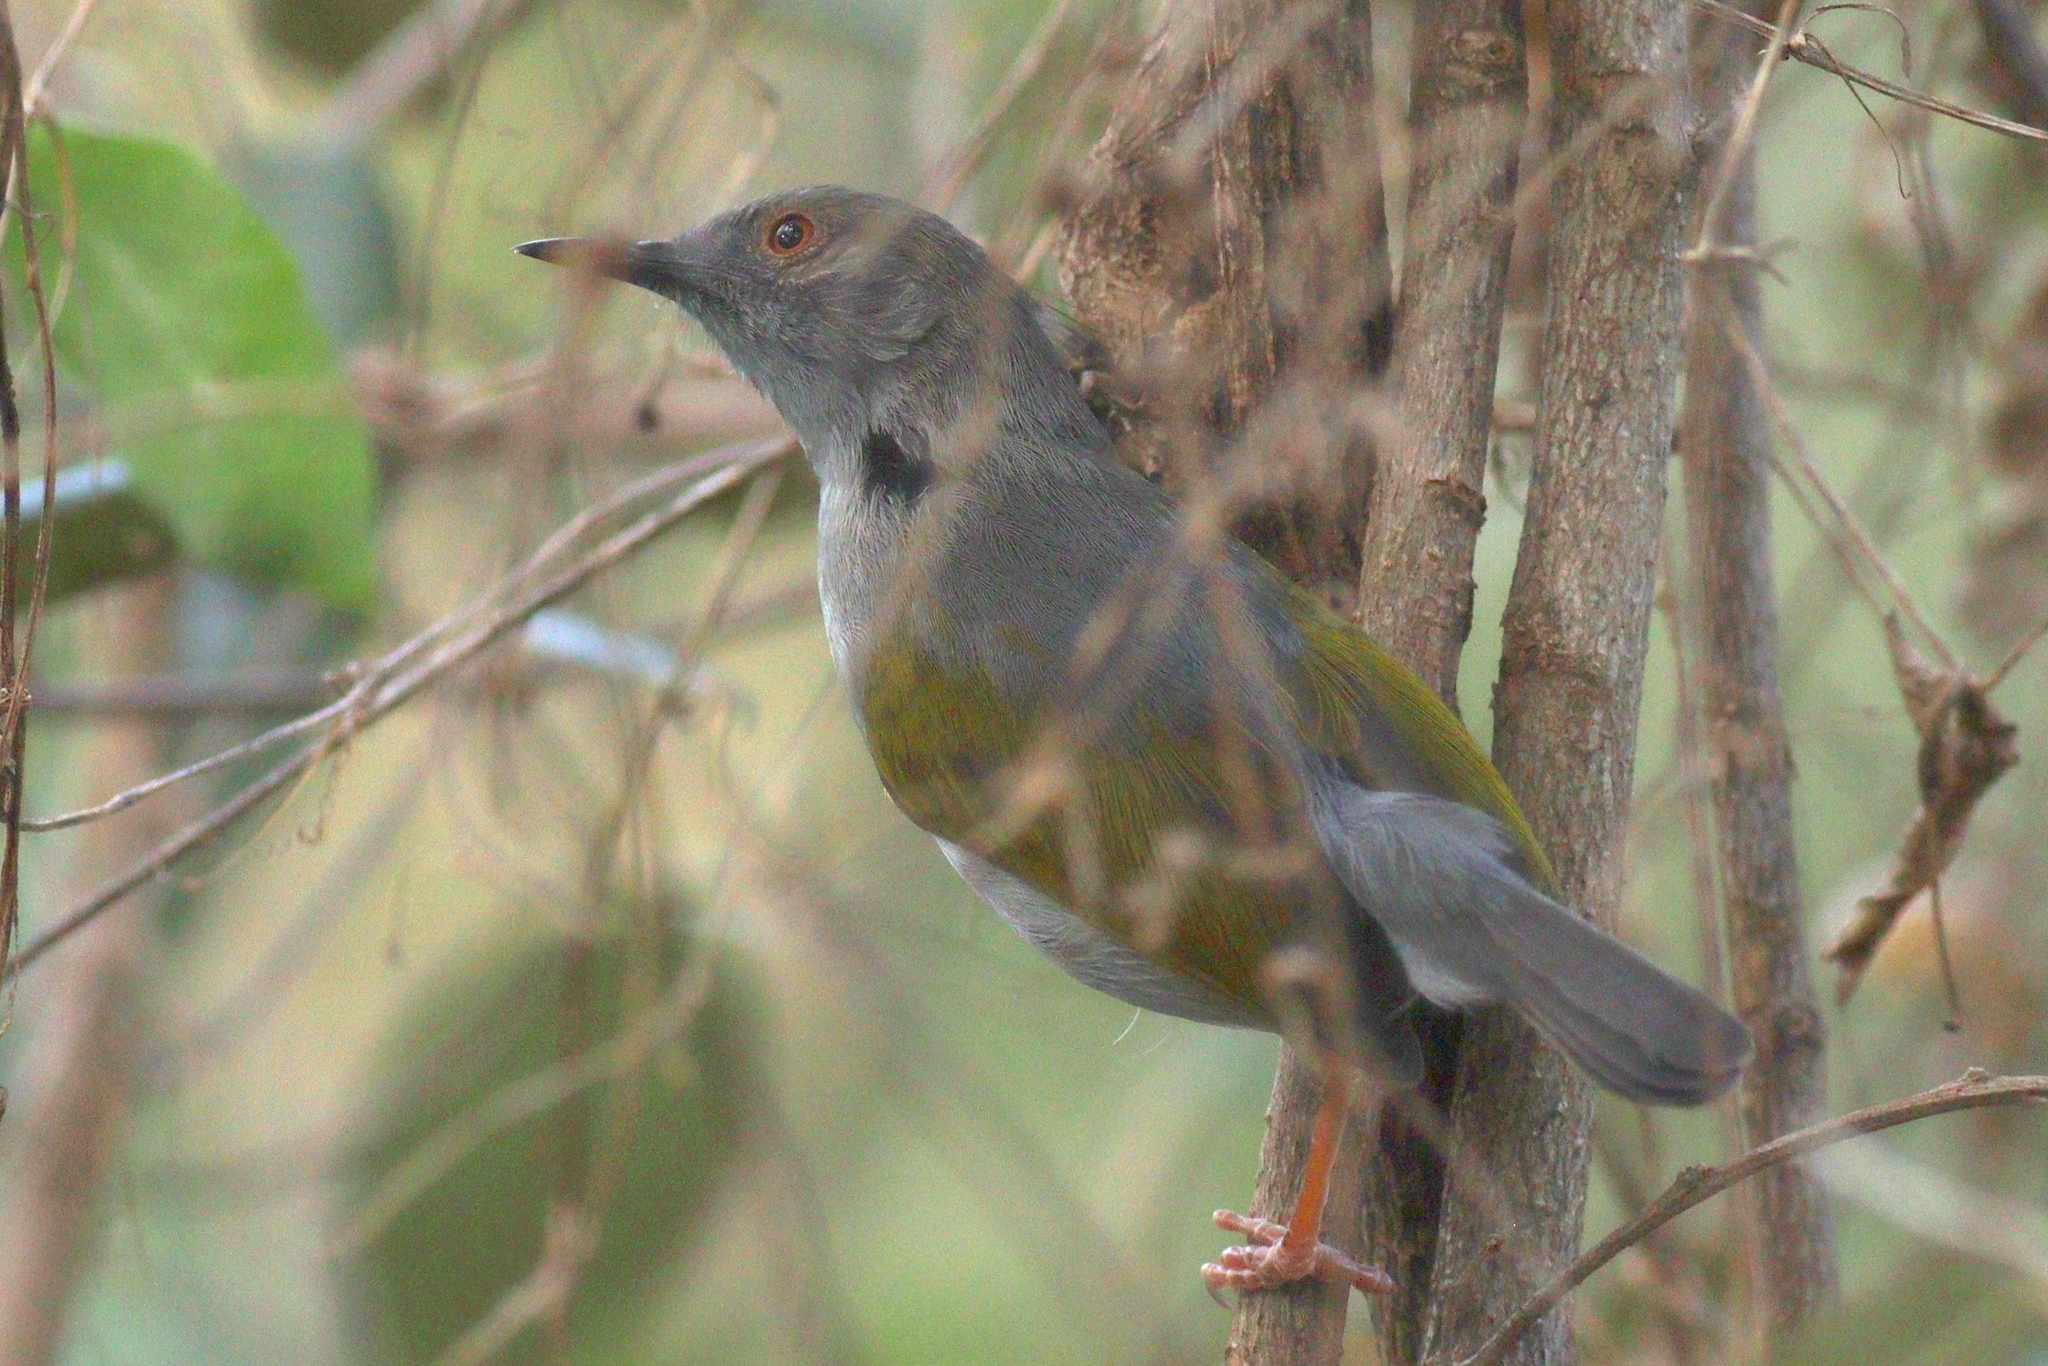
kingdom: Animalia
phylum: Chordata
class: Aves
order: Passeriformes
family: Cisticolidae
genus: Camaroptera
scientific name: Camaroptera brachyura
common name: Green-backed camaroptera
